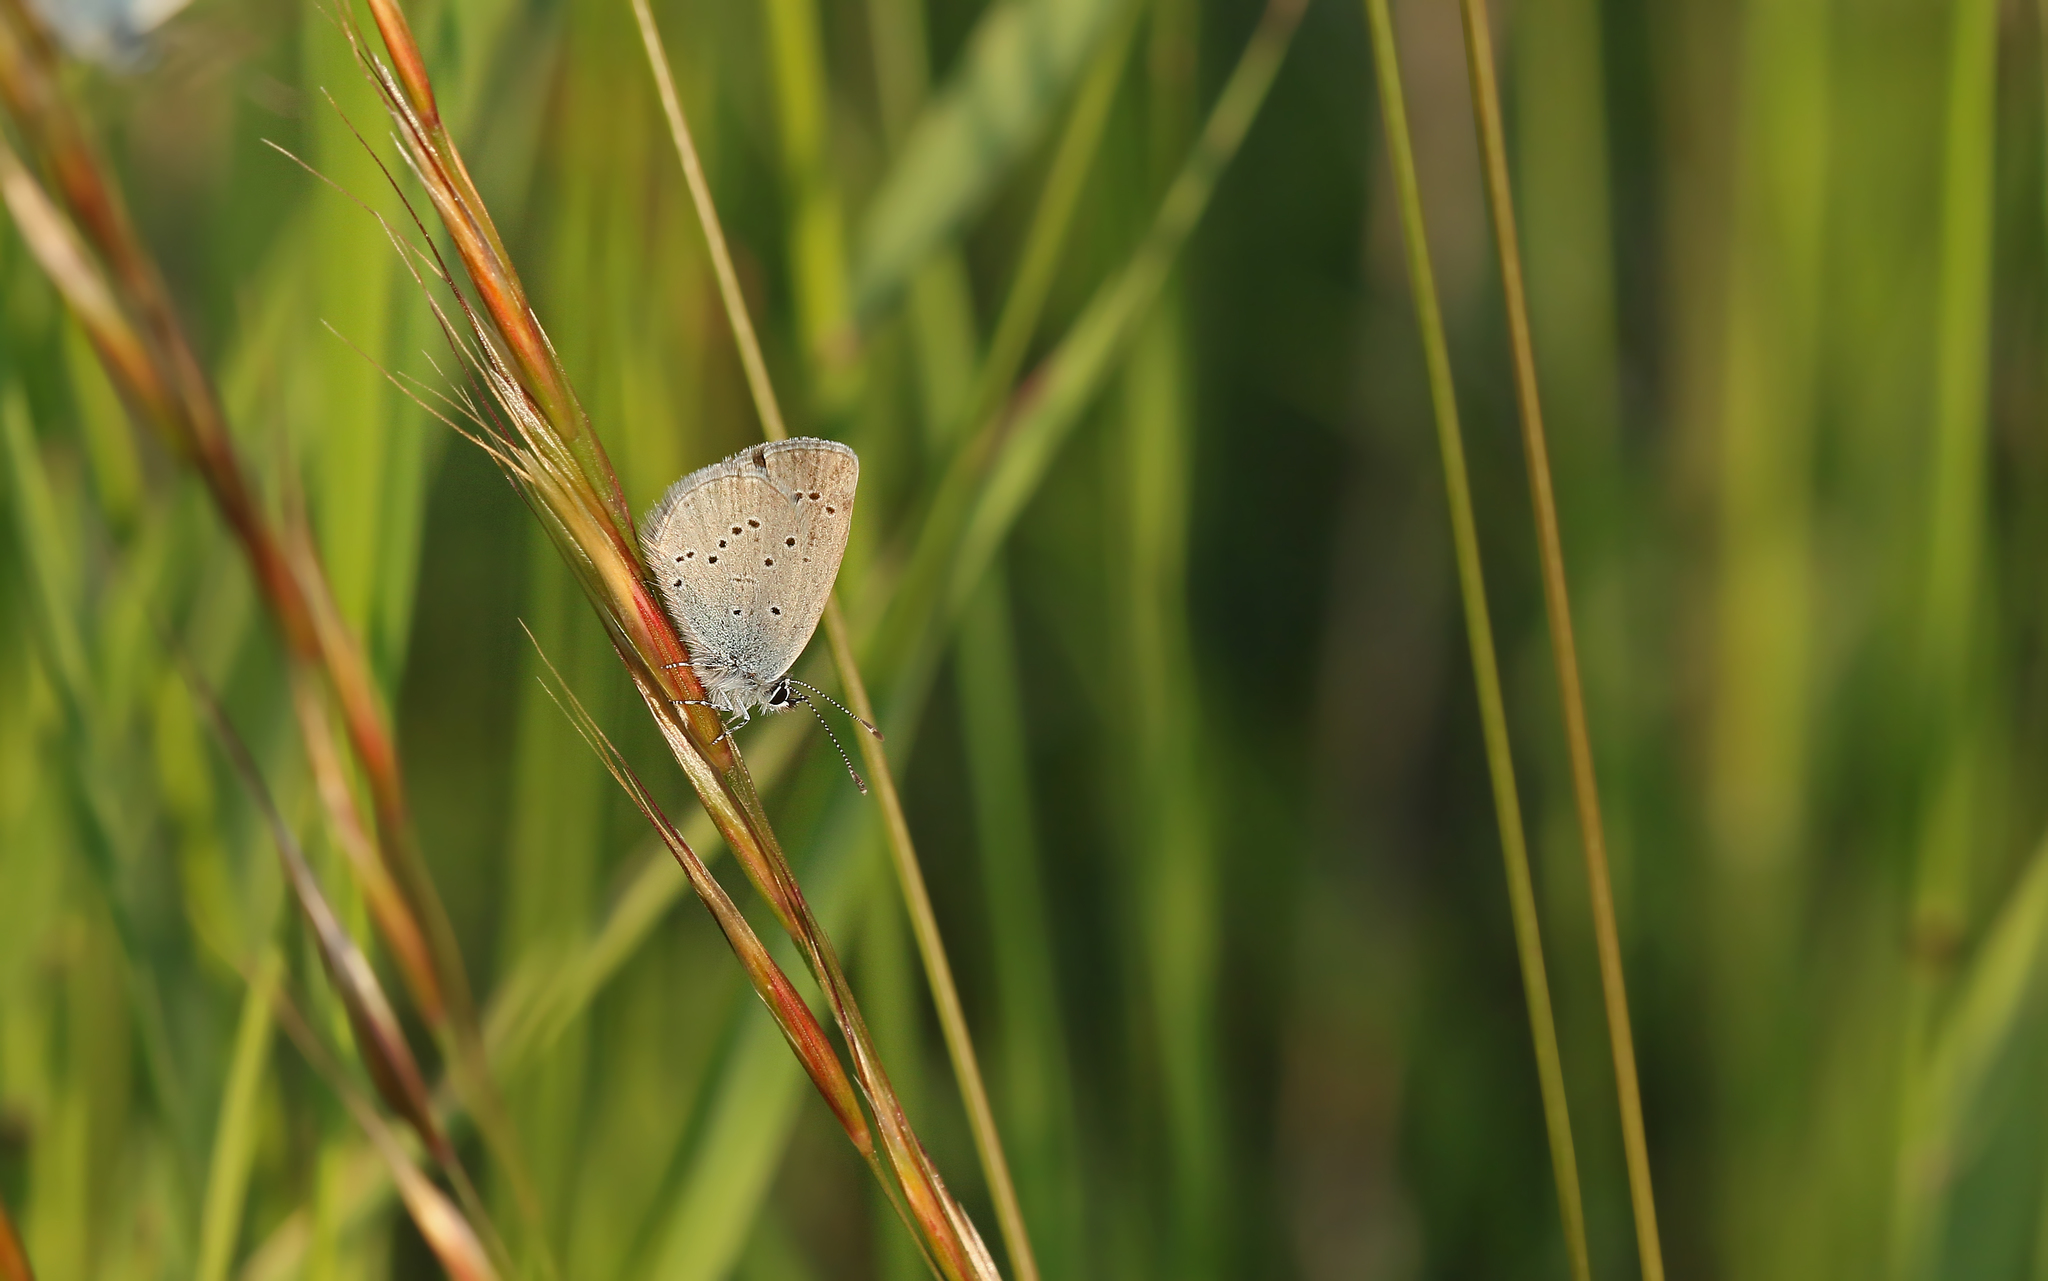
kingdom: Animalia
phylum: Arthropoda
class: Insecta
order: Lepidoptera
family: Lycaenidae
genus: Cupido
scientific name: Cupido minimus
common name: Small blue
